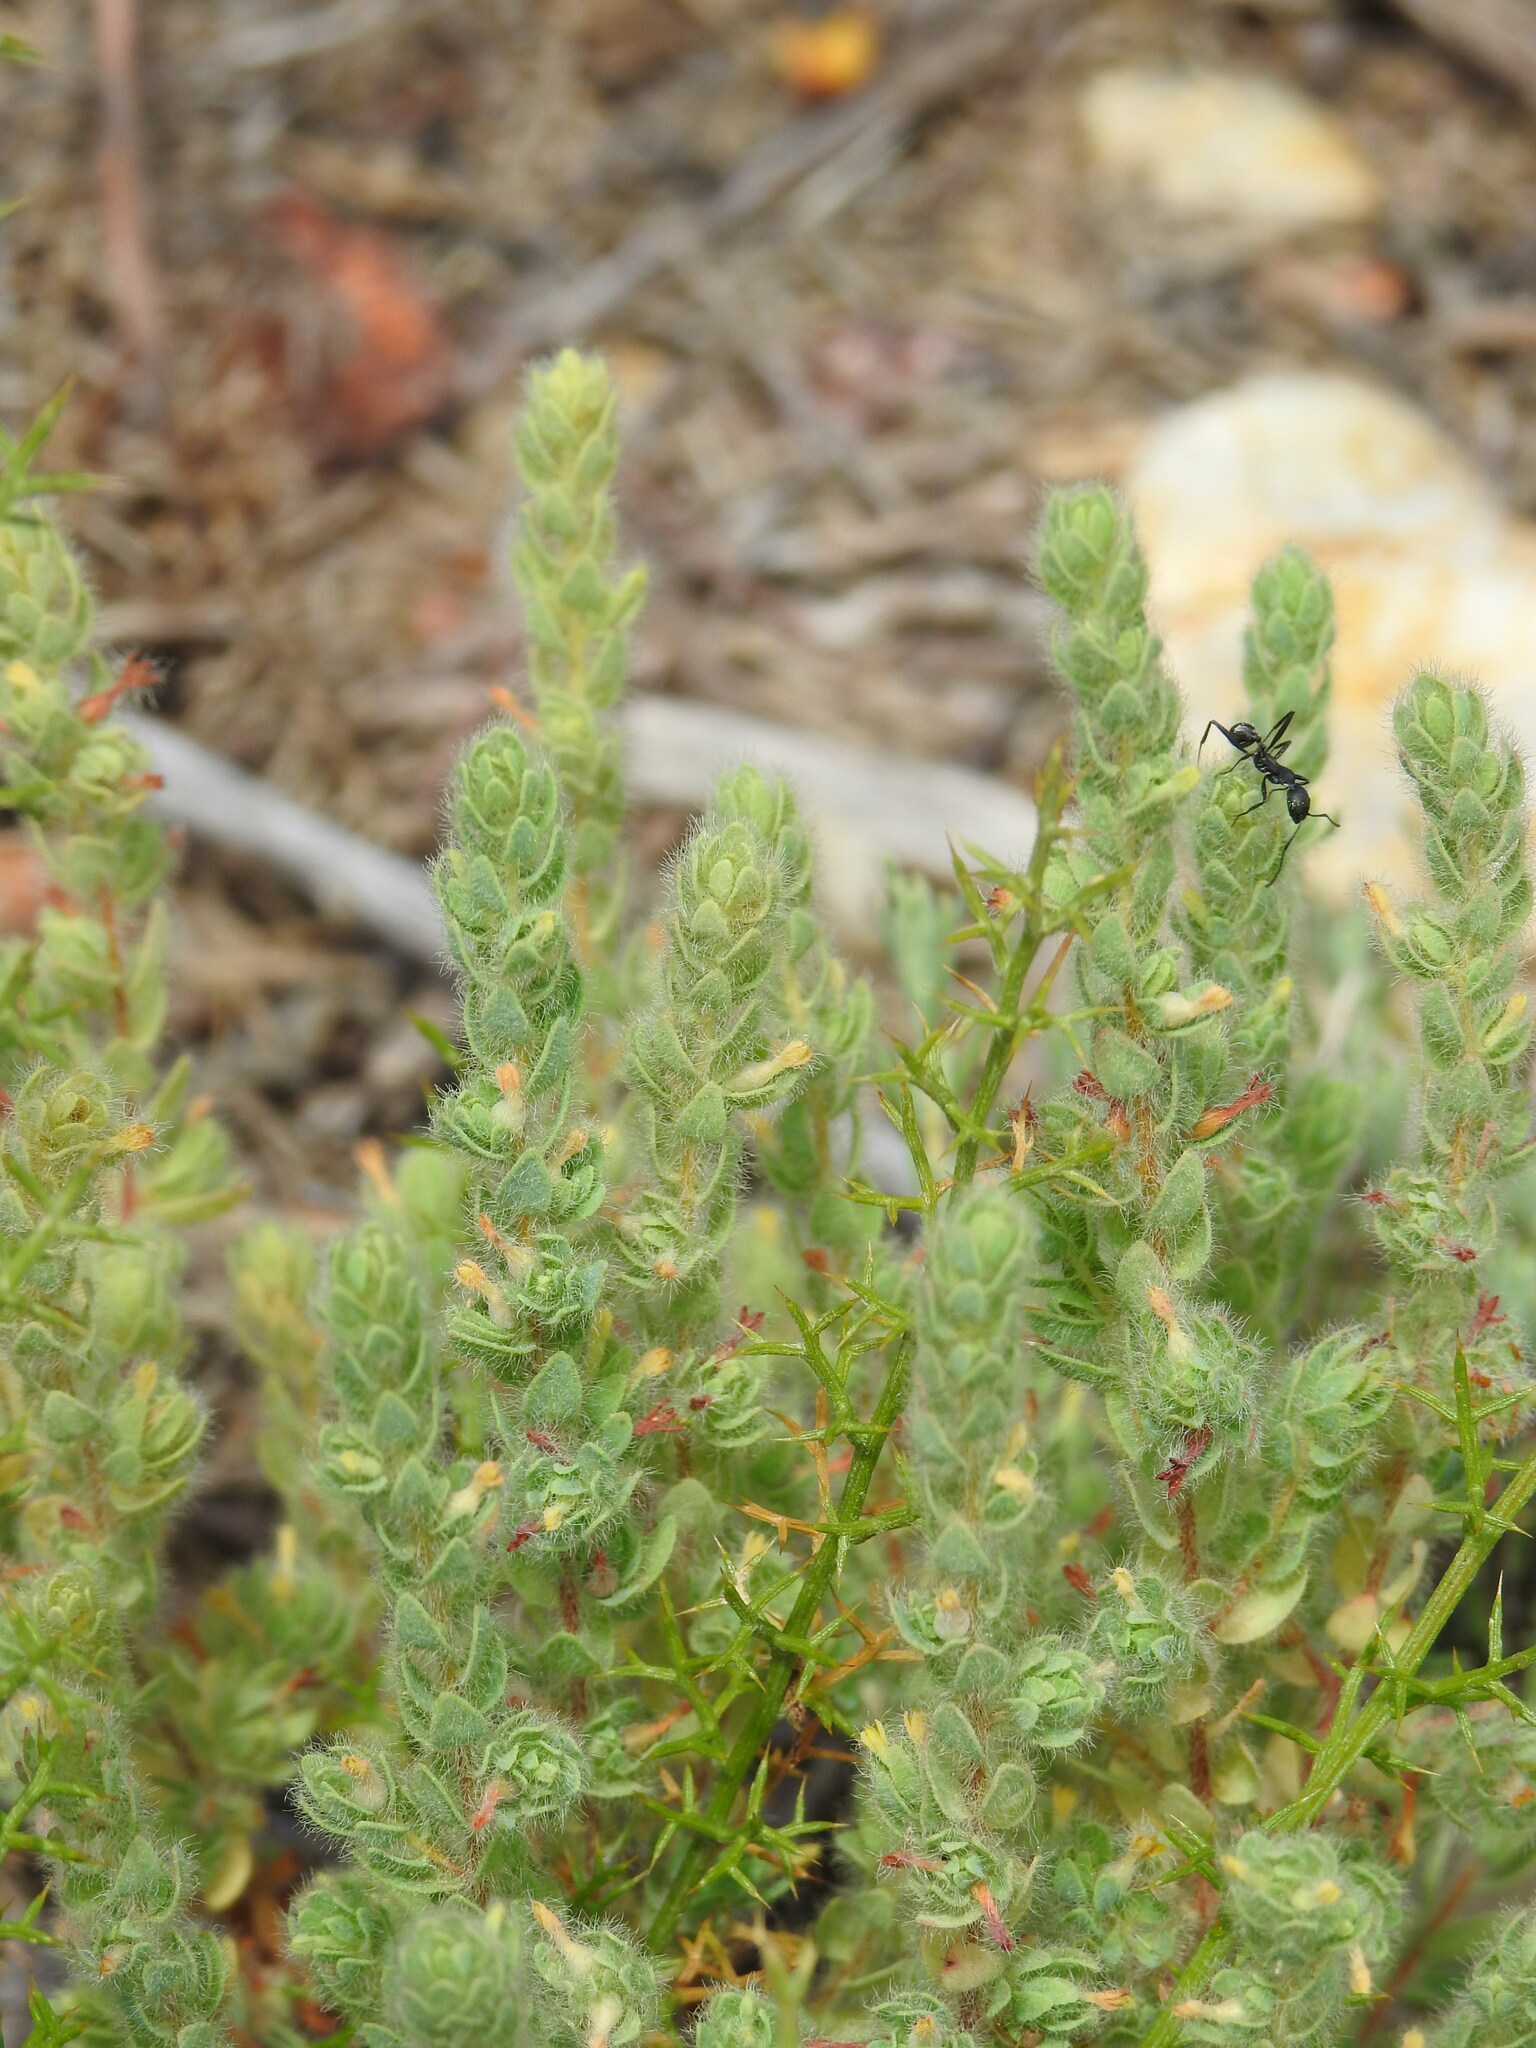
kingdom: Plantae
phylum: Tracheophyta
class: Magnoliopsida
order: Malvales
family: Thymelaeaceae
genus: Thymelaea
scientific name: Thymelaea villosa
